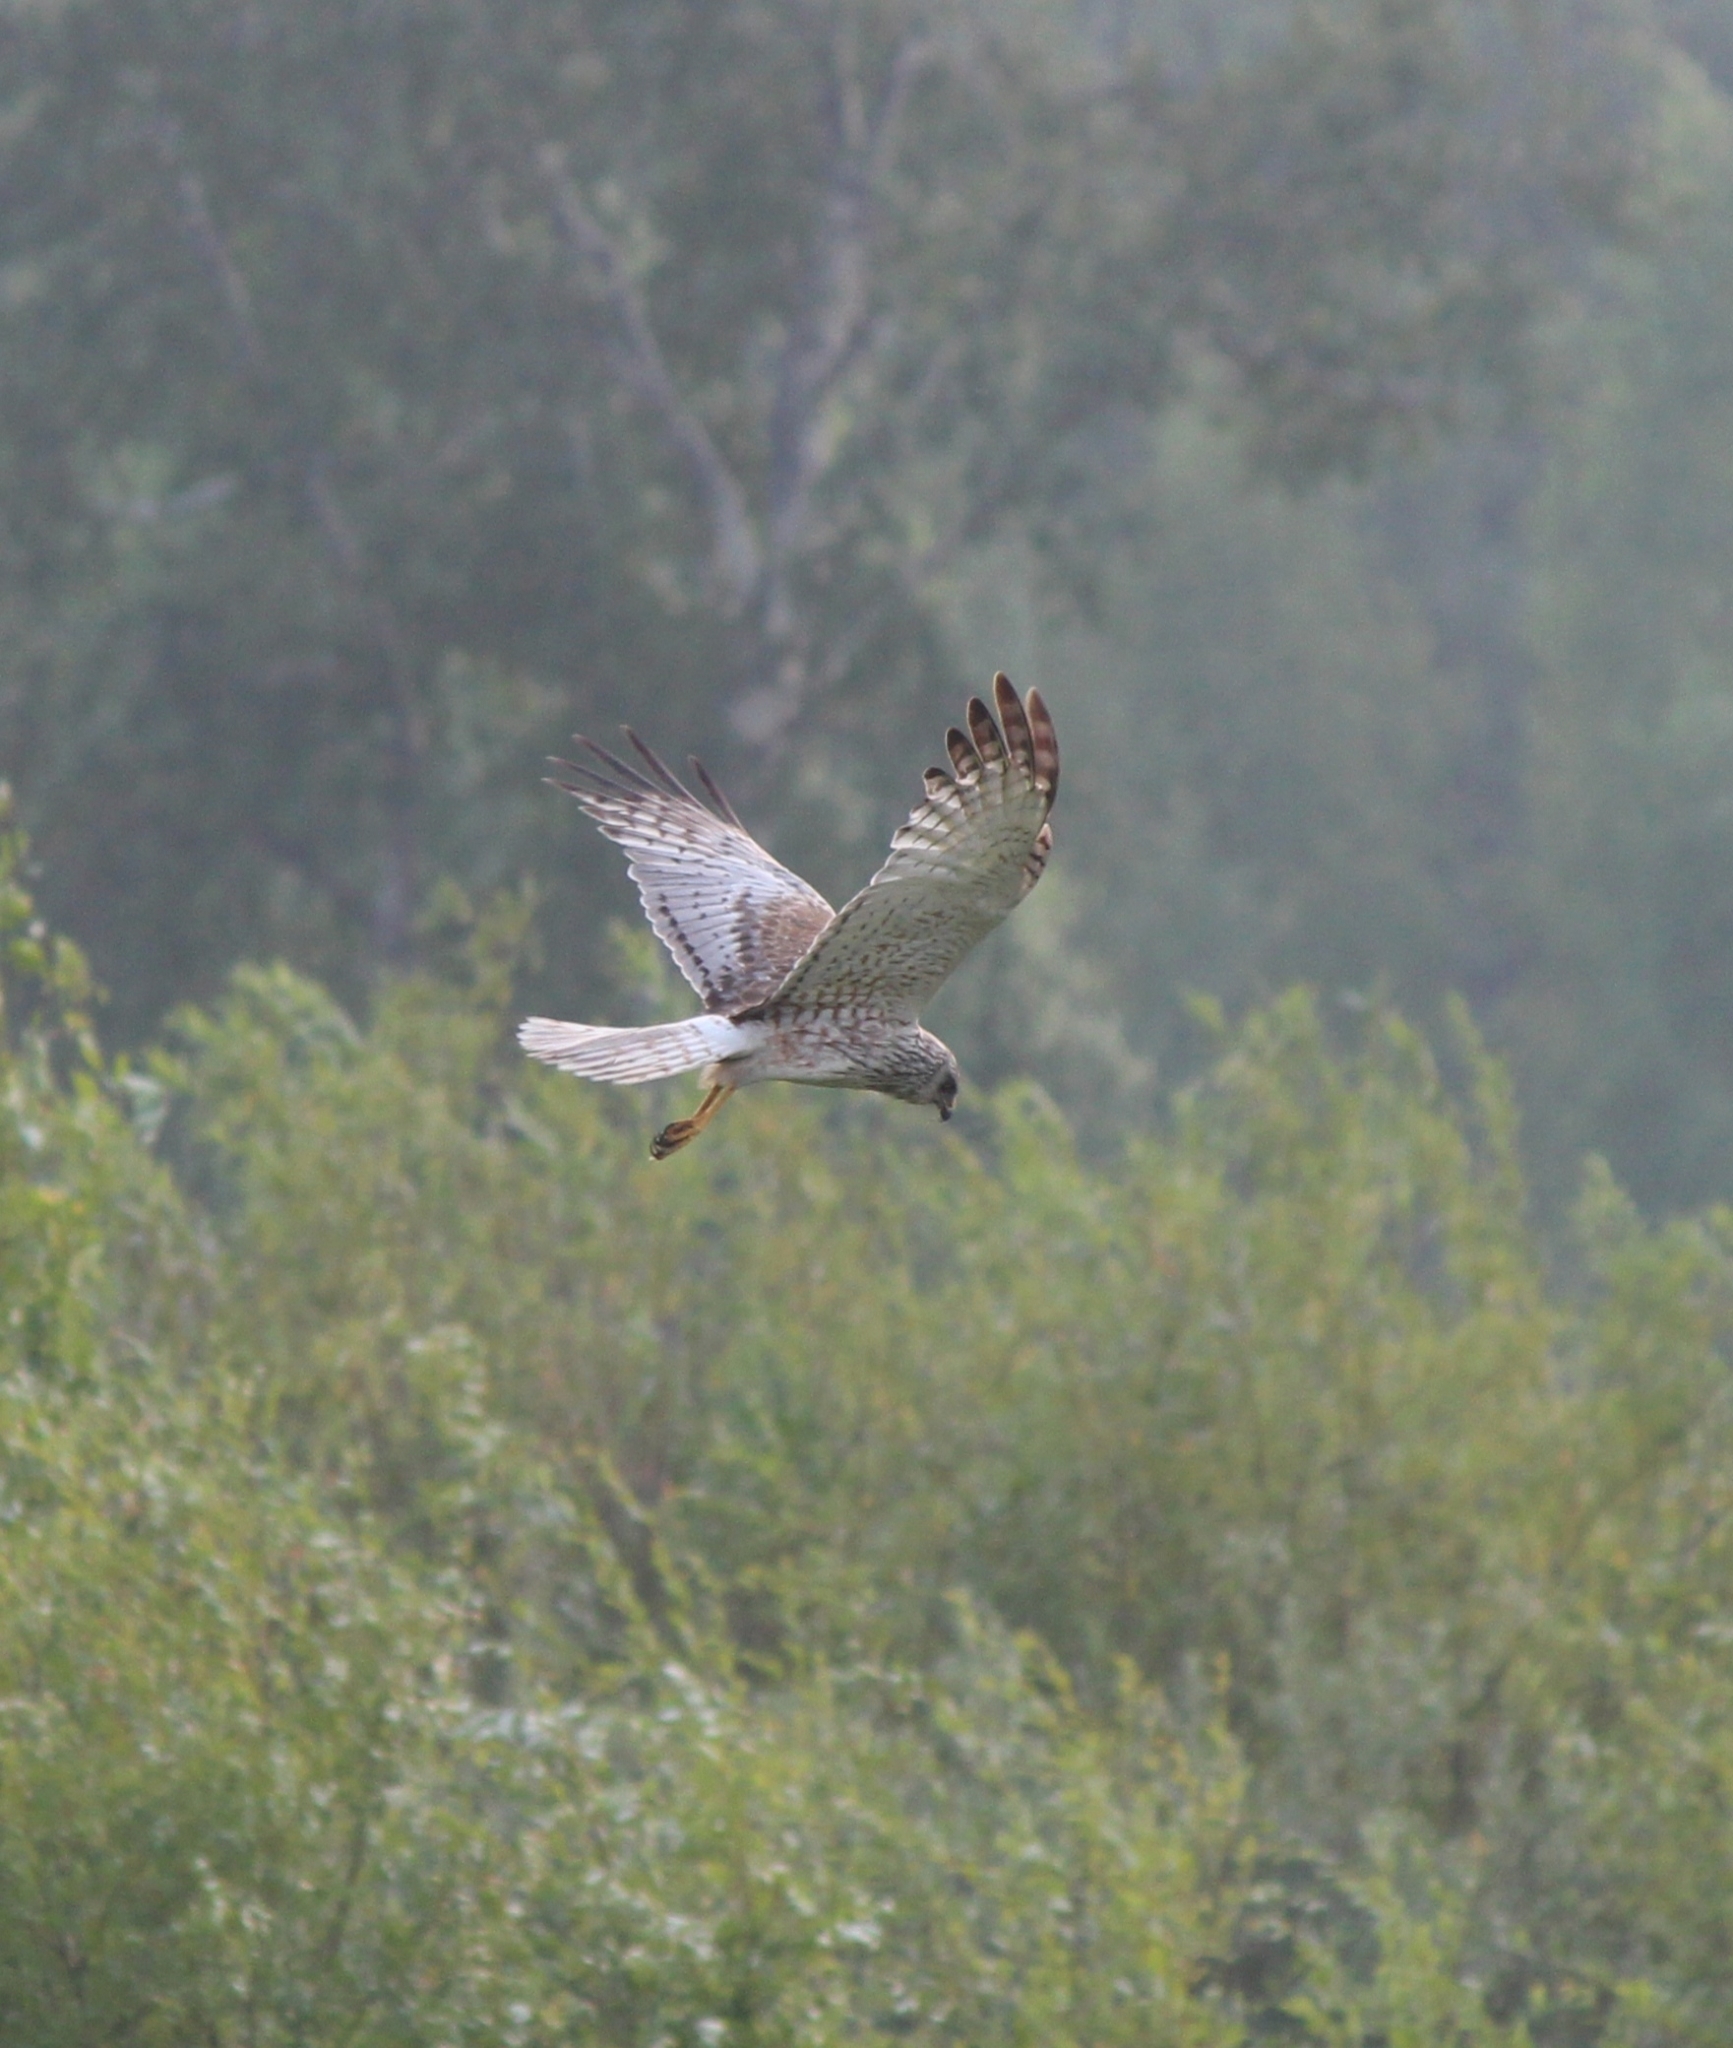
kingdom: Animalia
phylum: Chordata
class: Aves
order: Accipitriformes
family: Accipitridae
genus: Circus
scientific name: Circus spilonotus
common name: Eastern marsh-harrier
